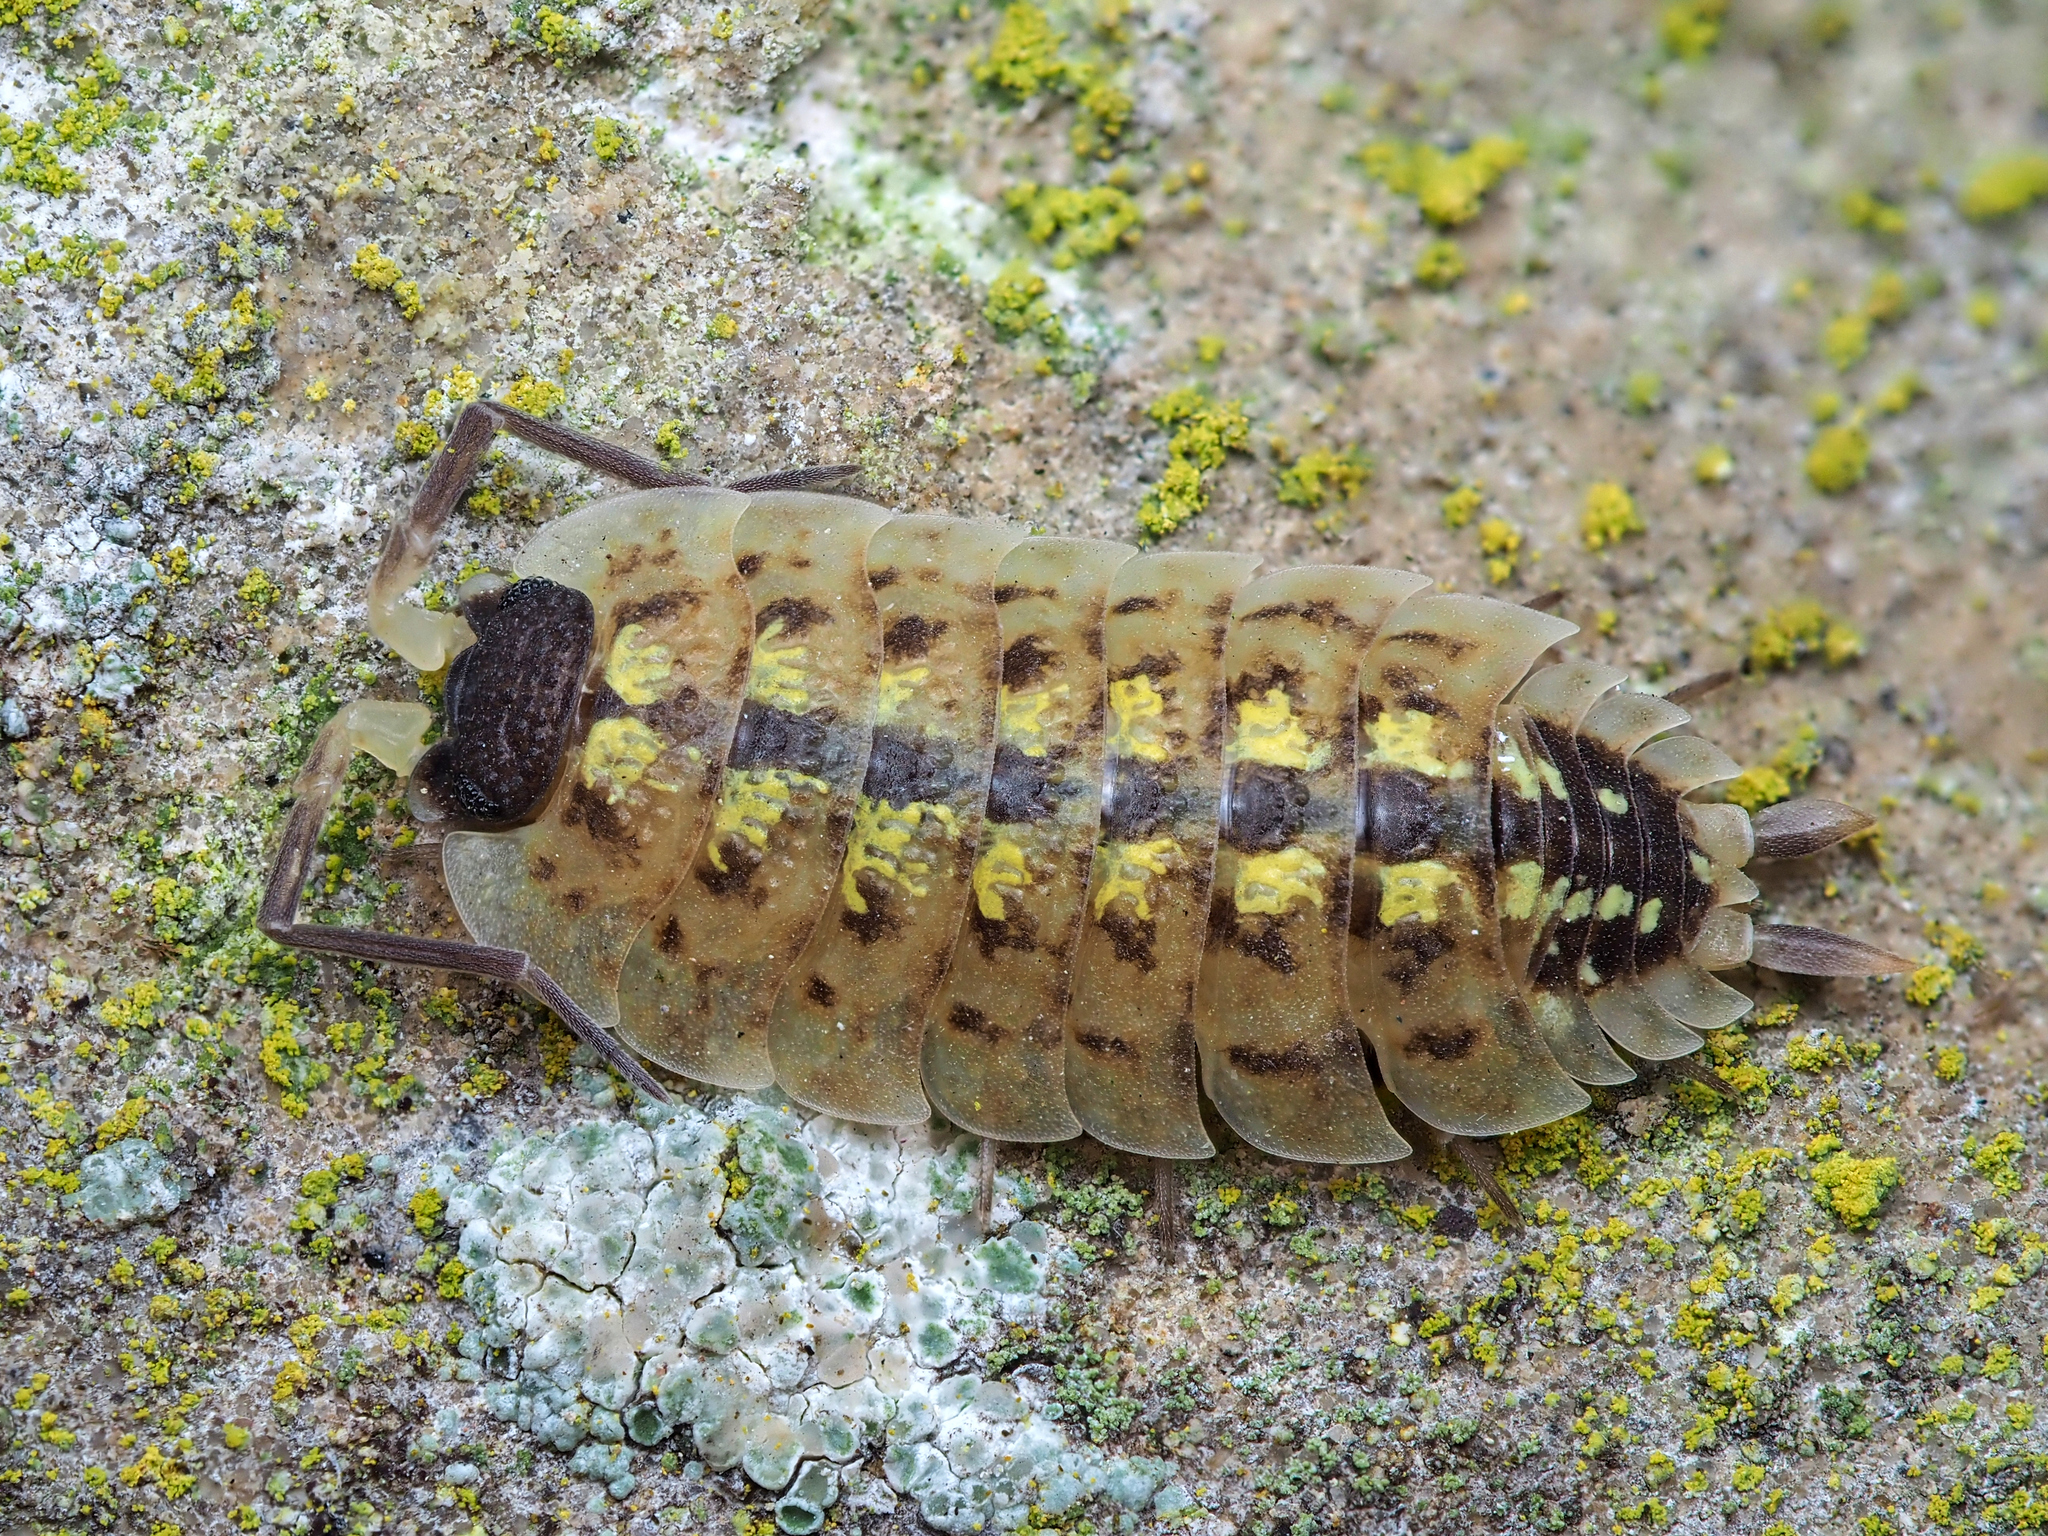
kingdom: Animalia
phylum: Arthropoda
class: Malacostraca
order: Isopoda
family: Porcellionidae
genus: Porcellio
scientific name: Porcellio spinicornis
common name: Painted woodlouse
